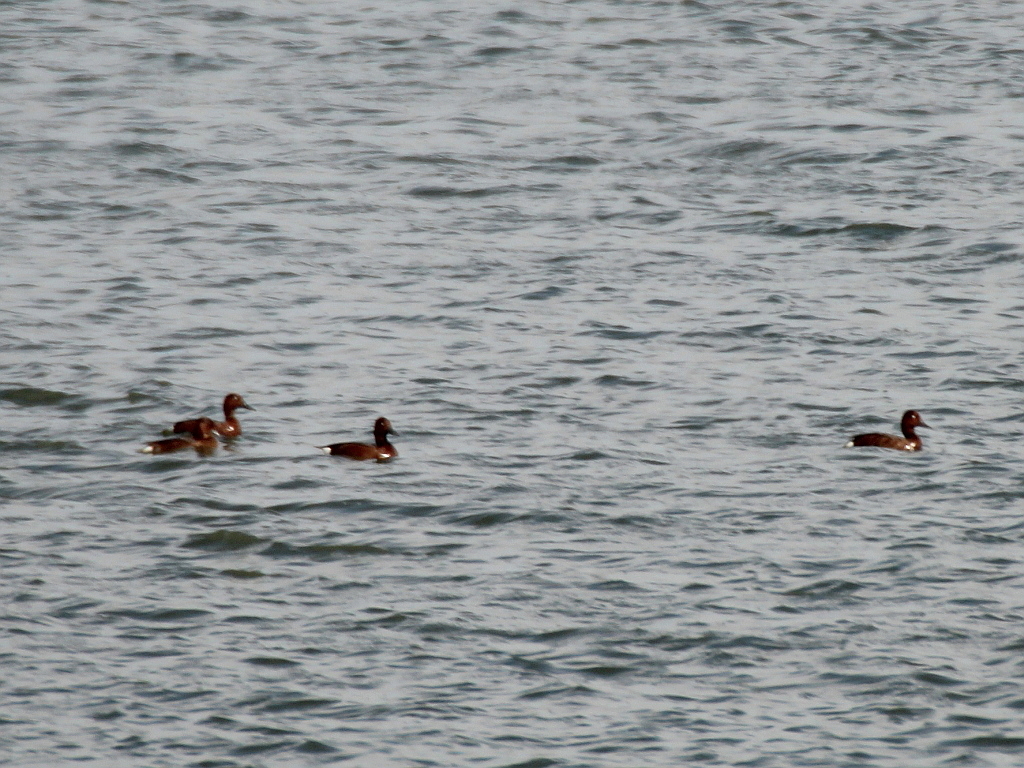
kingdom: Animalia
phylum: Chordata
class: Aves
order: Anseriformes
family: Anatidae
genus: Aythya
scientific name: Aythya nyroca
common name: Ferruginous duck
